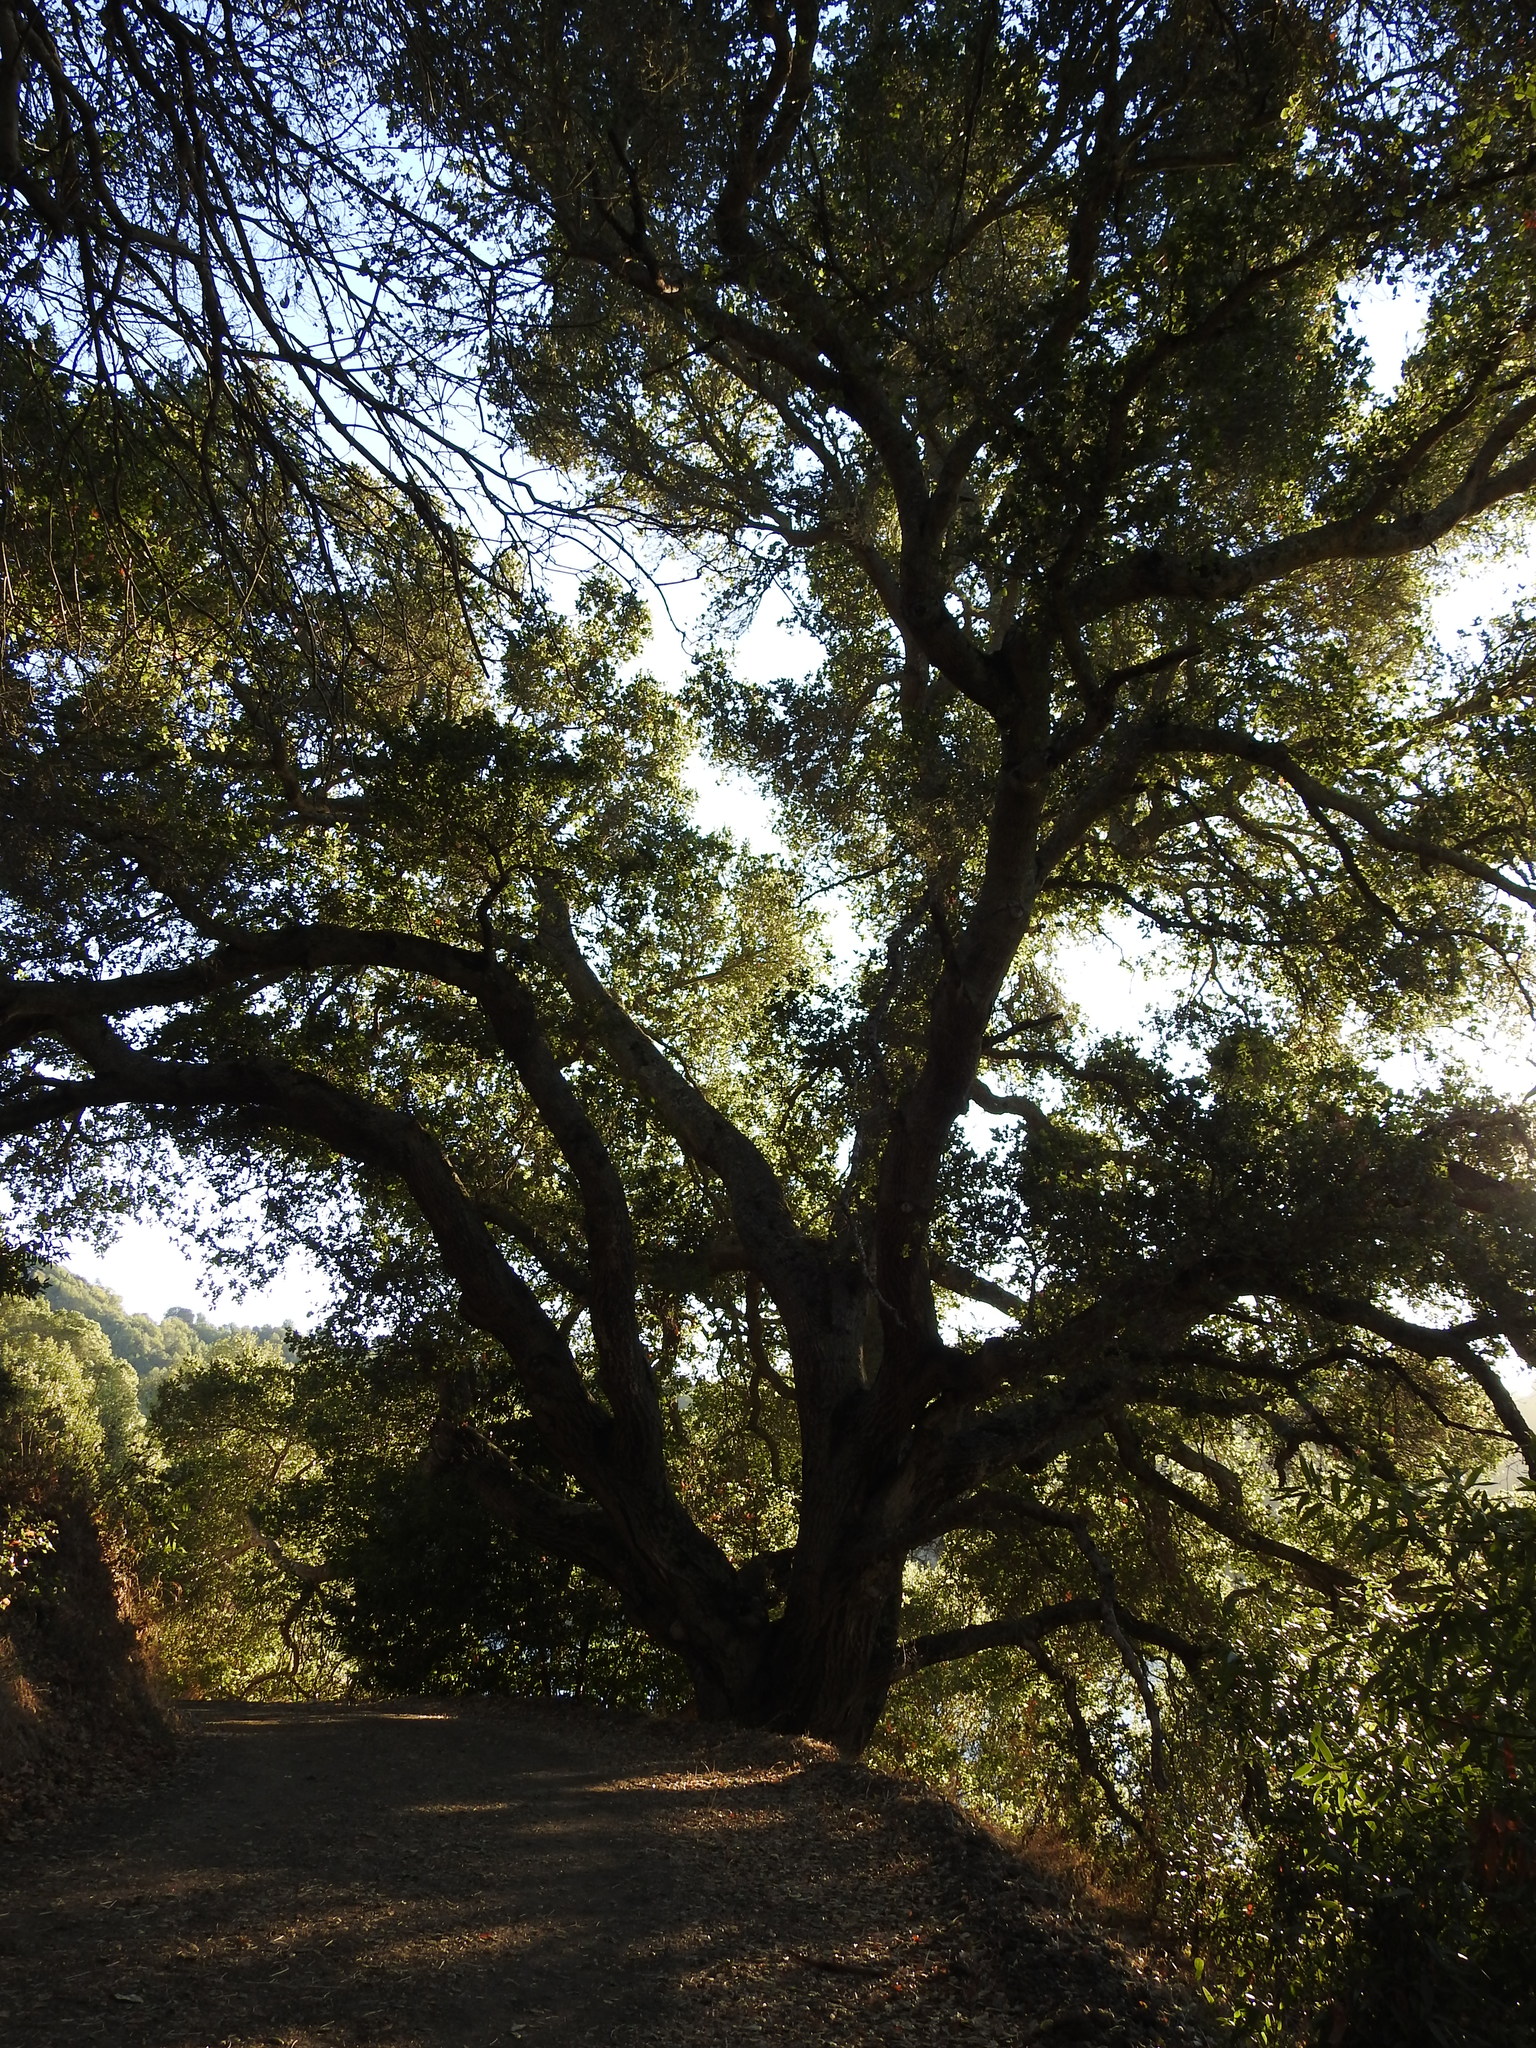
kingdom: Plantae
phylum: Tracheophyta
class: Magnoliopsida
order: Fagales
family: Fagaceae
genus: Quercus
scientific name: Quercus agrifolia
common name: California live oak
